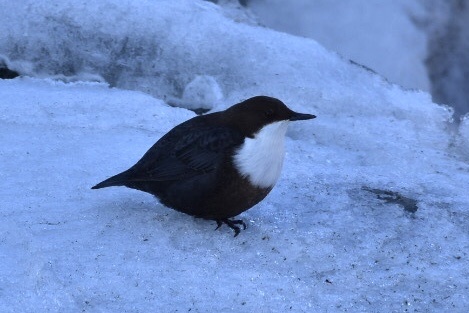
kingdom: Animalia
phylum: Chordata
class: Aves
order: Passeriformes
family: Cinclidae
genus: Cinclus
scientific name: Cinclus cinclus
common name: White-throated dipper
